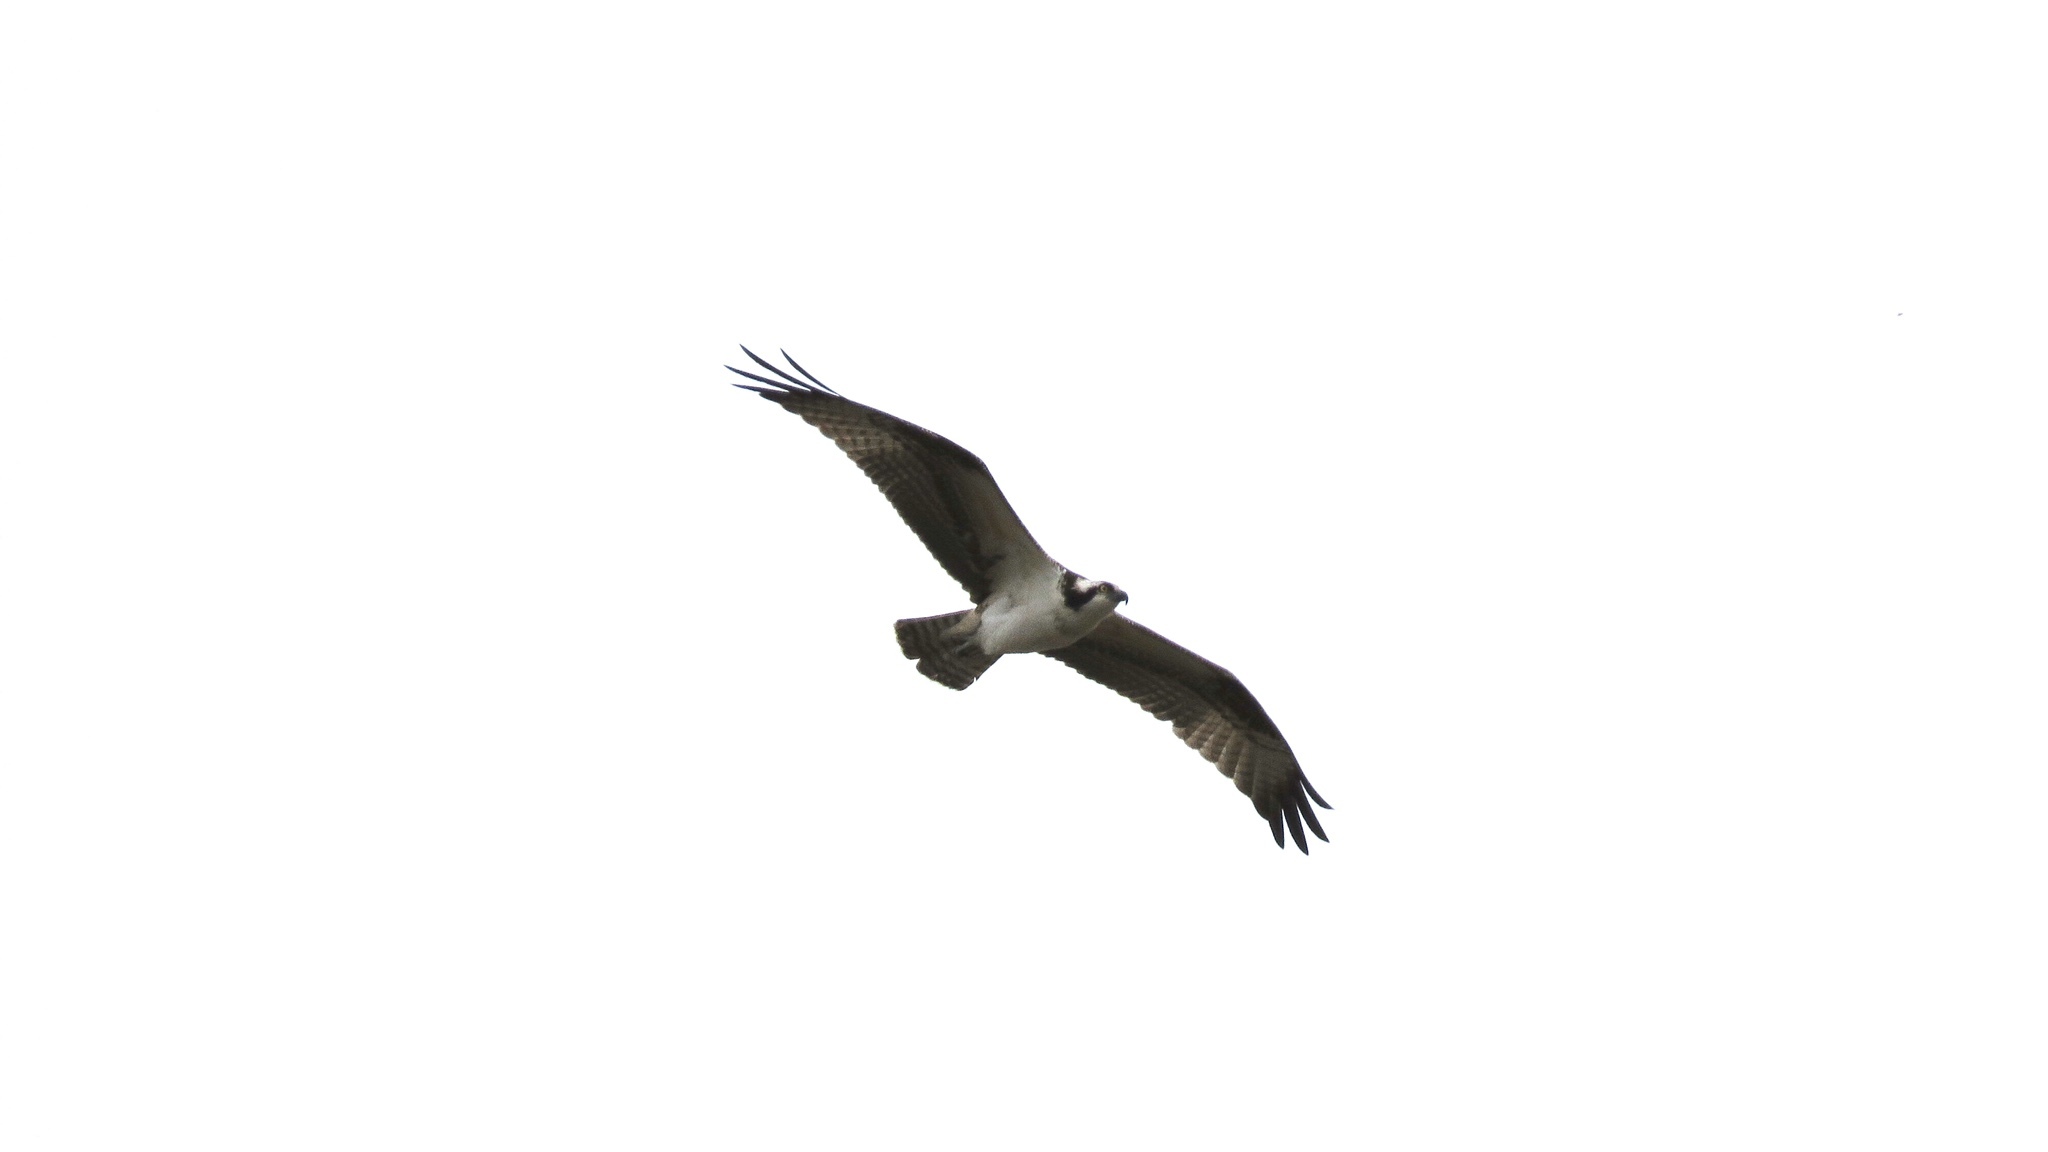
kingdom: Animalia
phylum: Chordata
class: Aves
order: Accipitriformes
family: Pandionidae
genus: Pandion
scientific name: Pandion haliaetus
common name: Osprey
